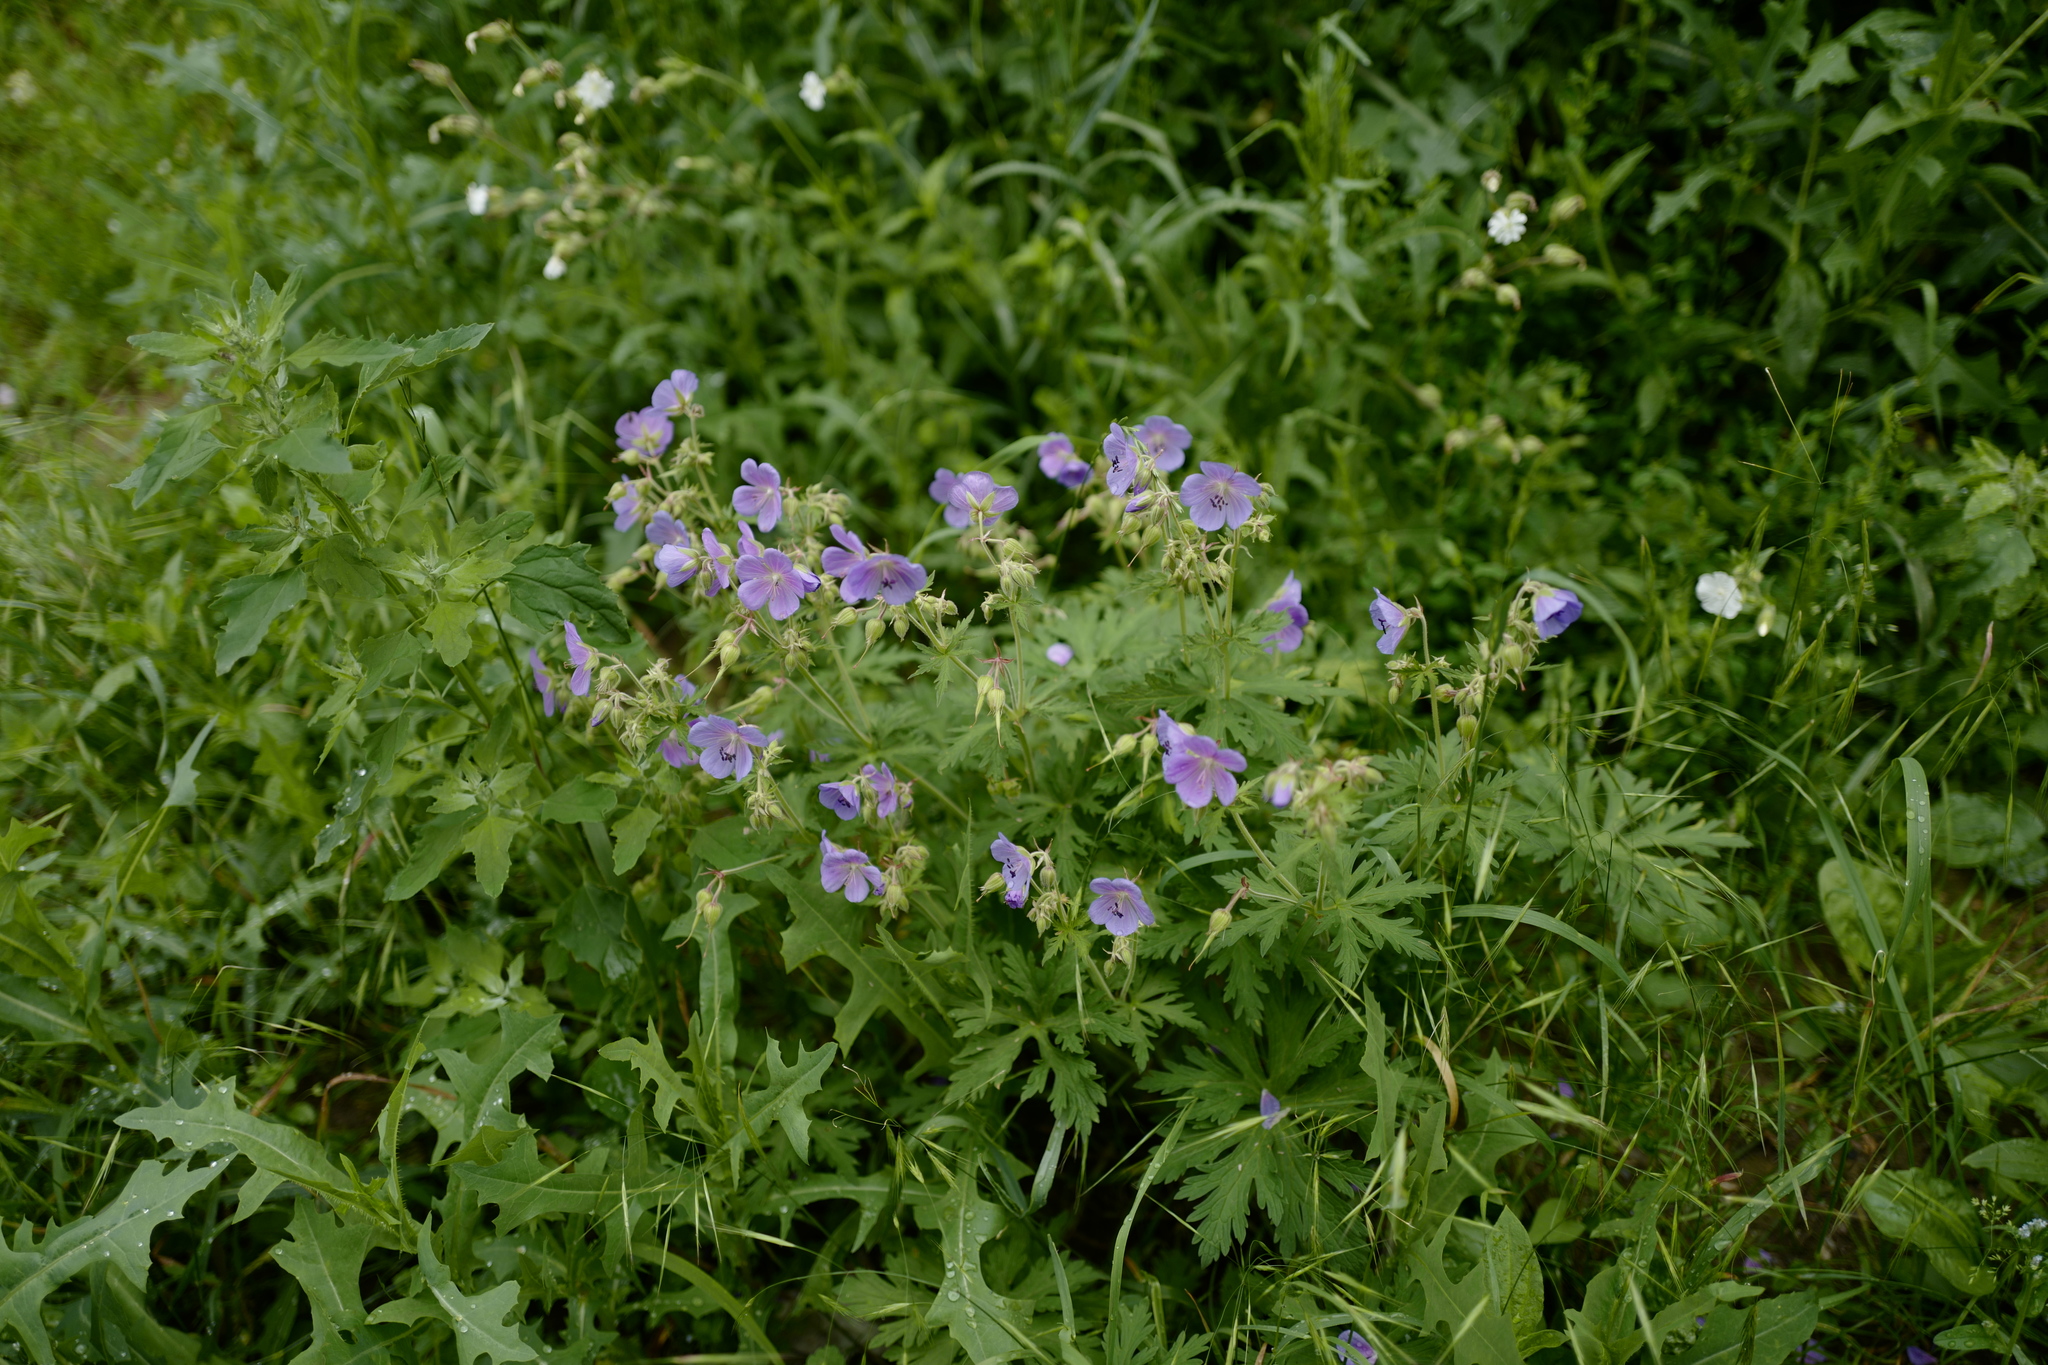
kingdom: Plantae
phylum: Tracheophyta
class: Magnoliopsida
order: Geraniales
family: Geraniaceae
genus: Geranium
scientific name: Geranium pratense
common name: Meadow crane's-bill
